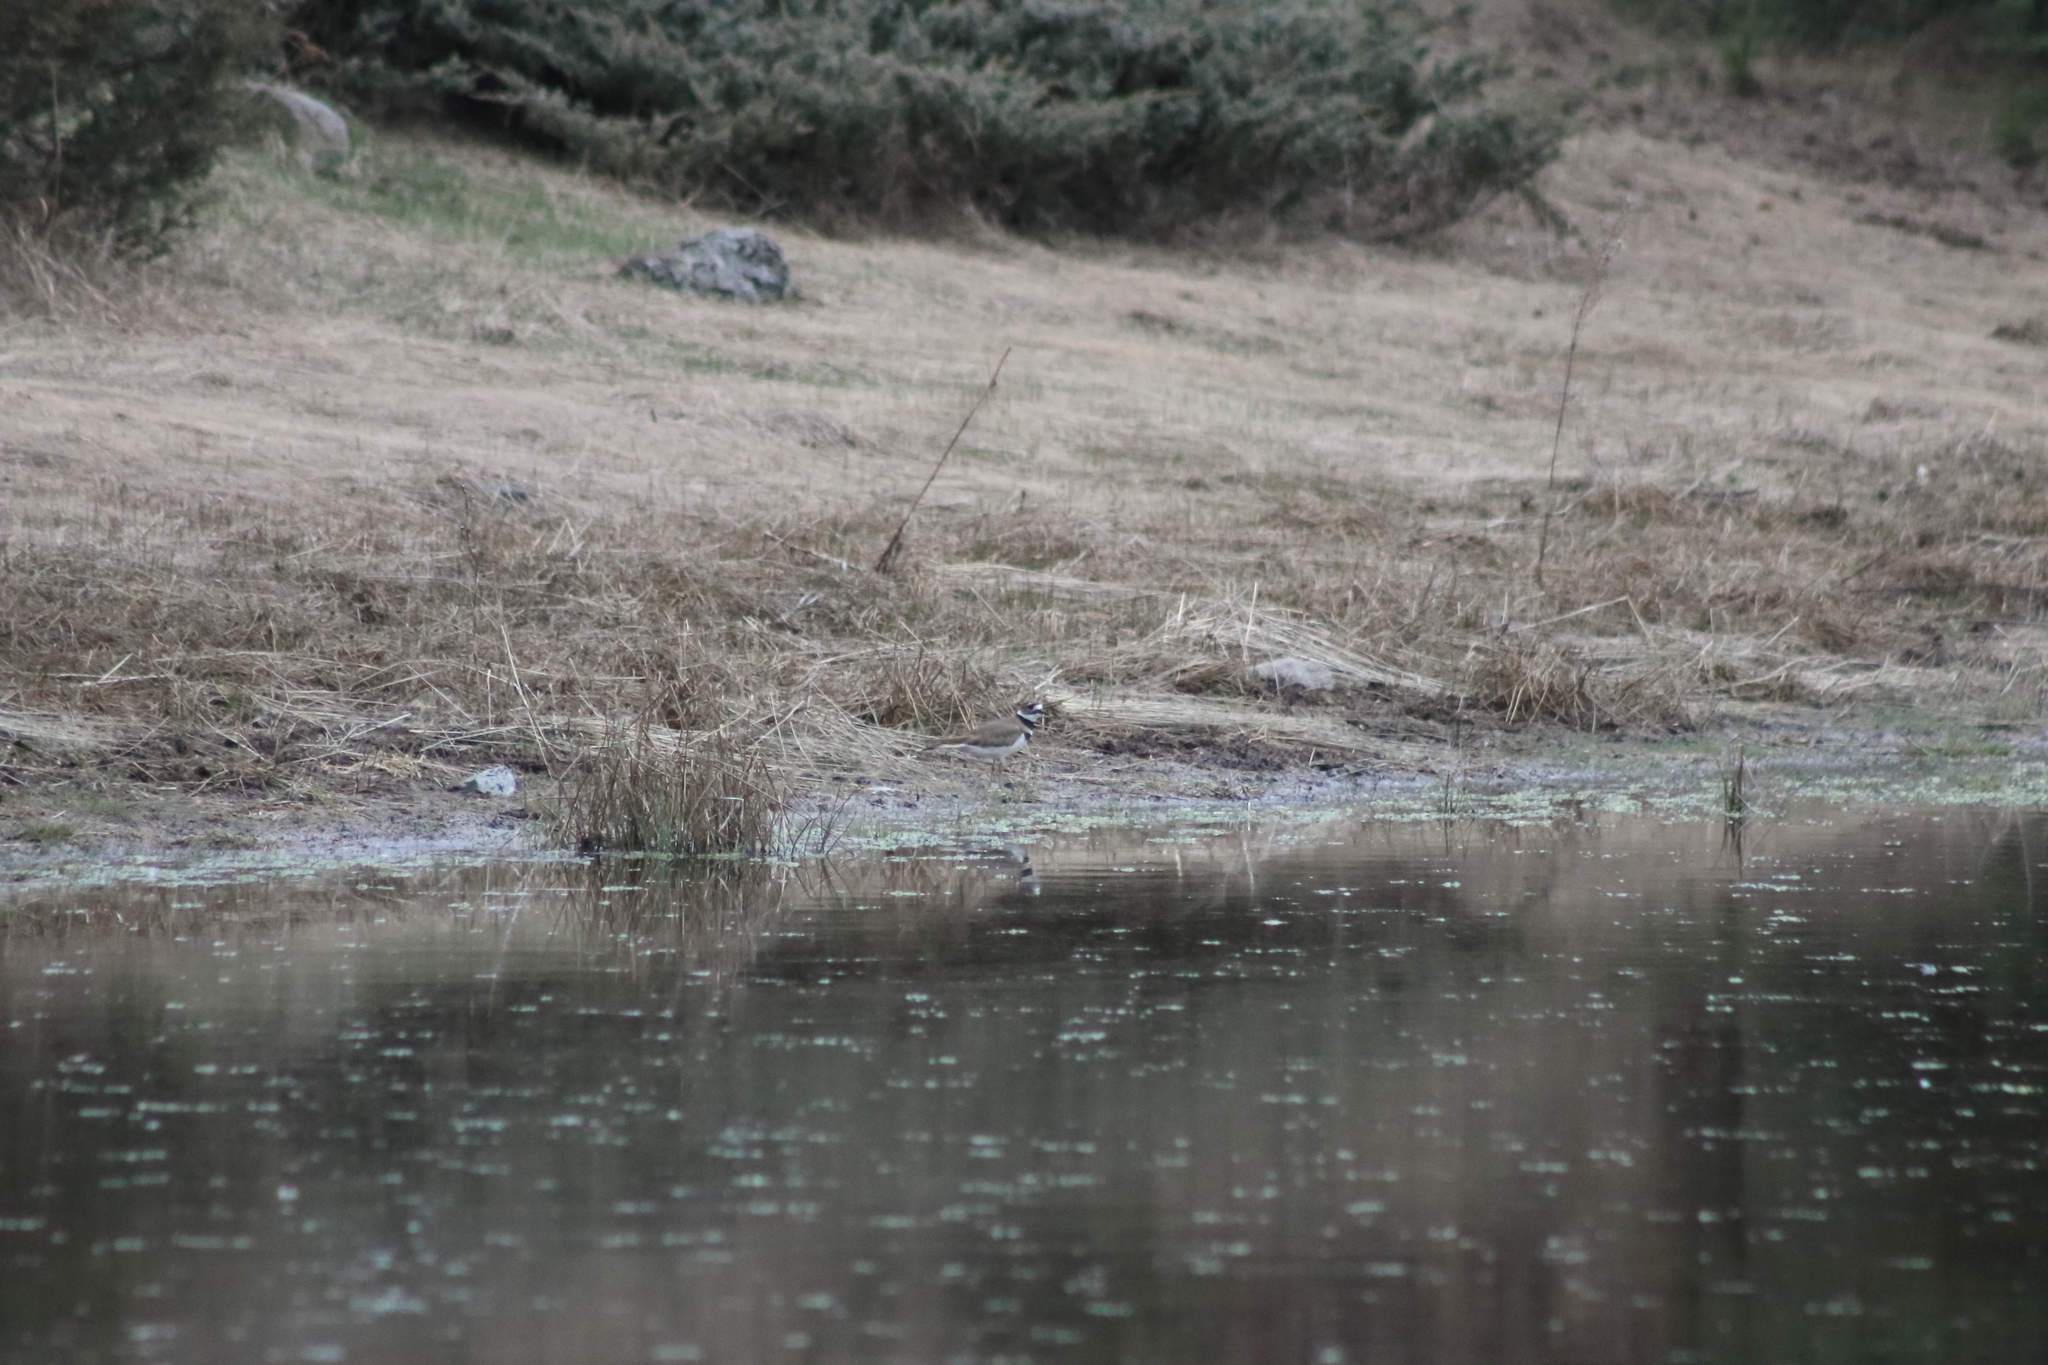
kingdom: Animalia
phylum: Chordata
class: Aves
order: Charadriiformes
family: Charadriidae
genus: Charadrius
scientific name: Charadrius vociferus
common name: Killdeer
